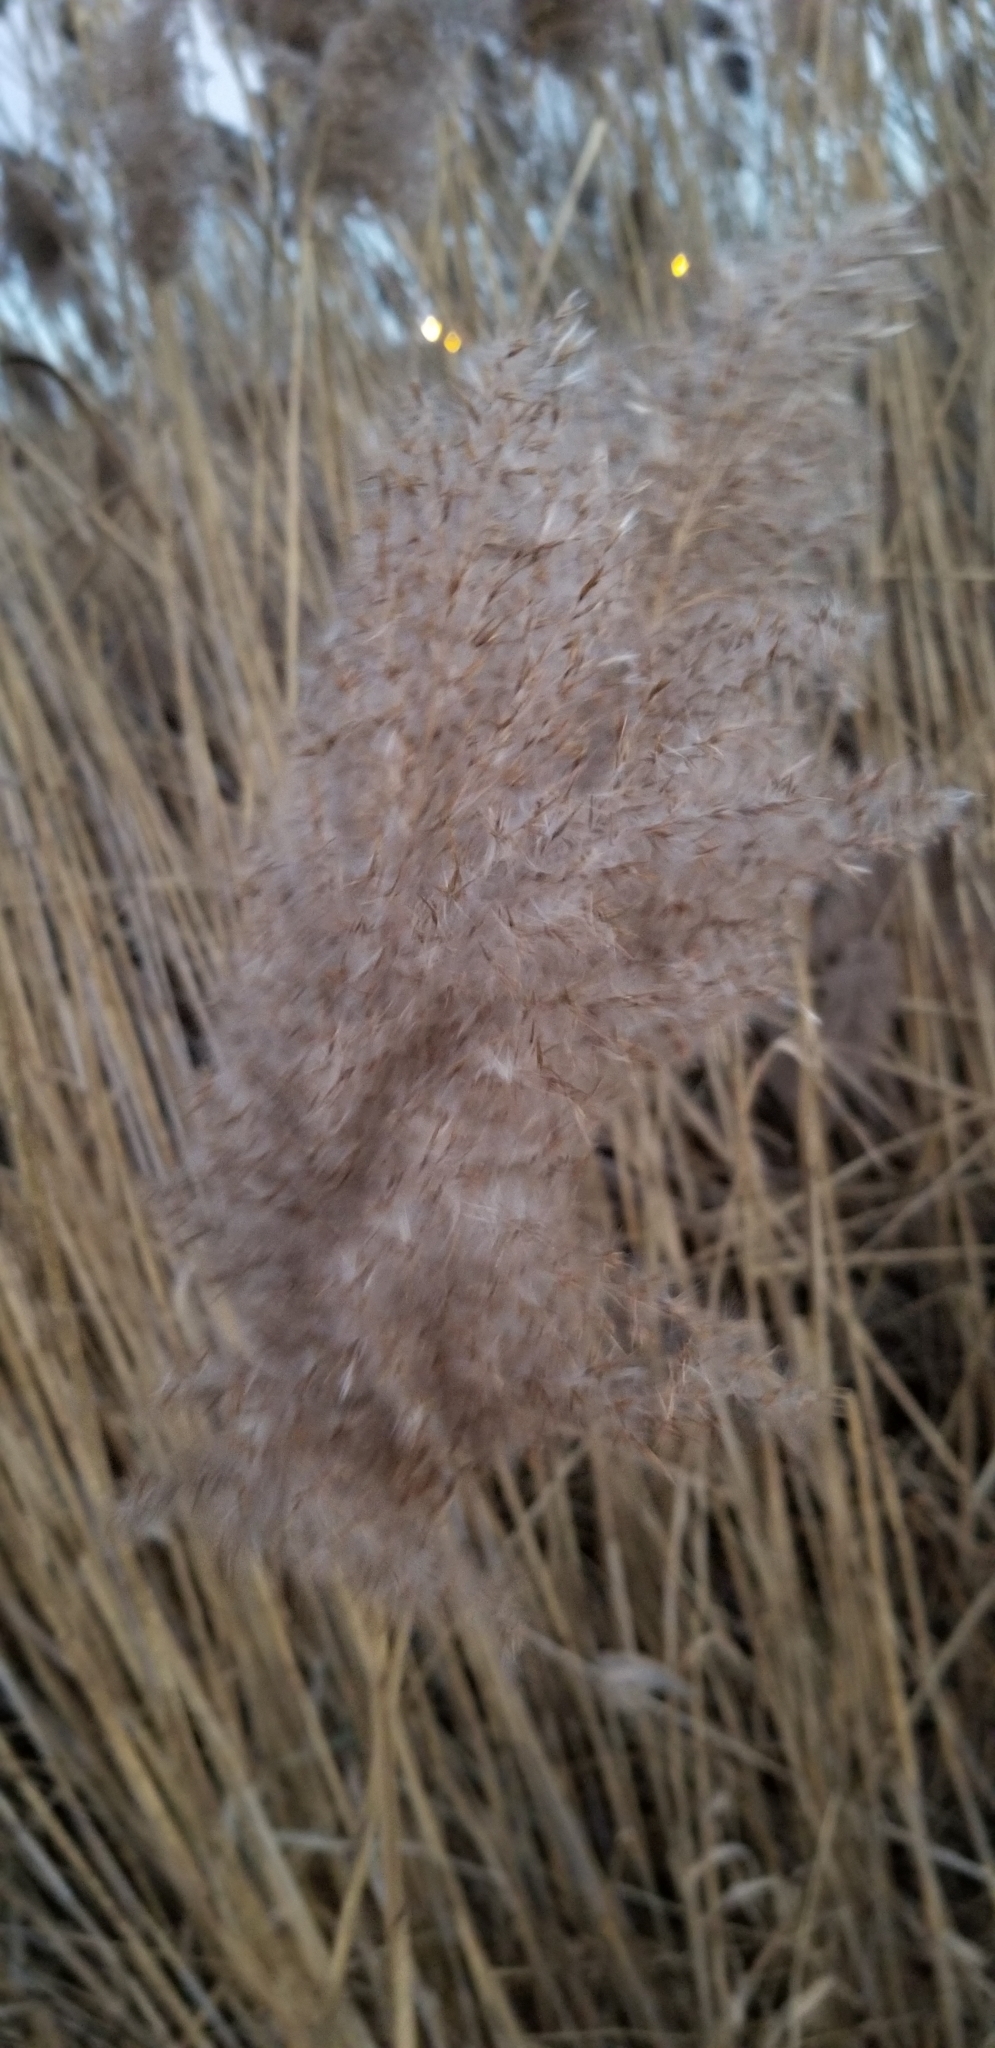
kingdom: Plantae
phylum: Tracheophyta
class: Liliopsida
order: Poales
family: Poaceae
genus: Phragmites
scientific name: Phragmites australis
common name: Common reed
